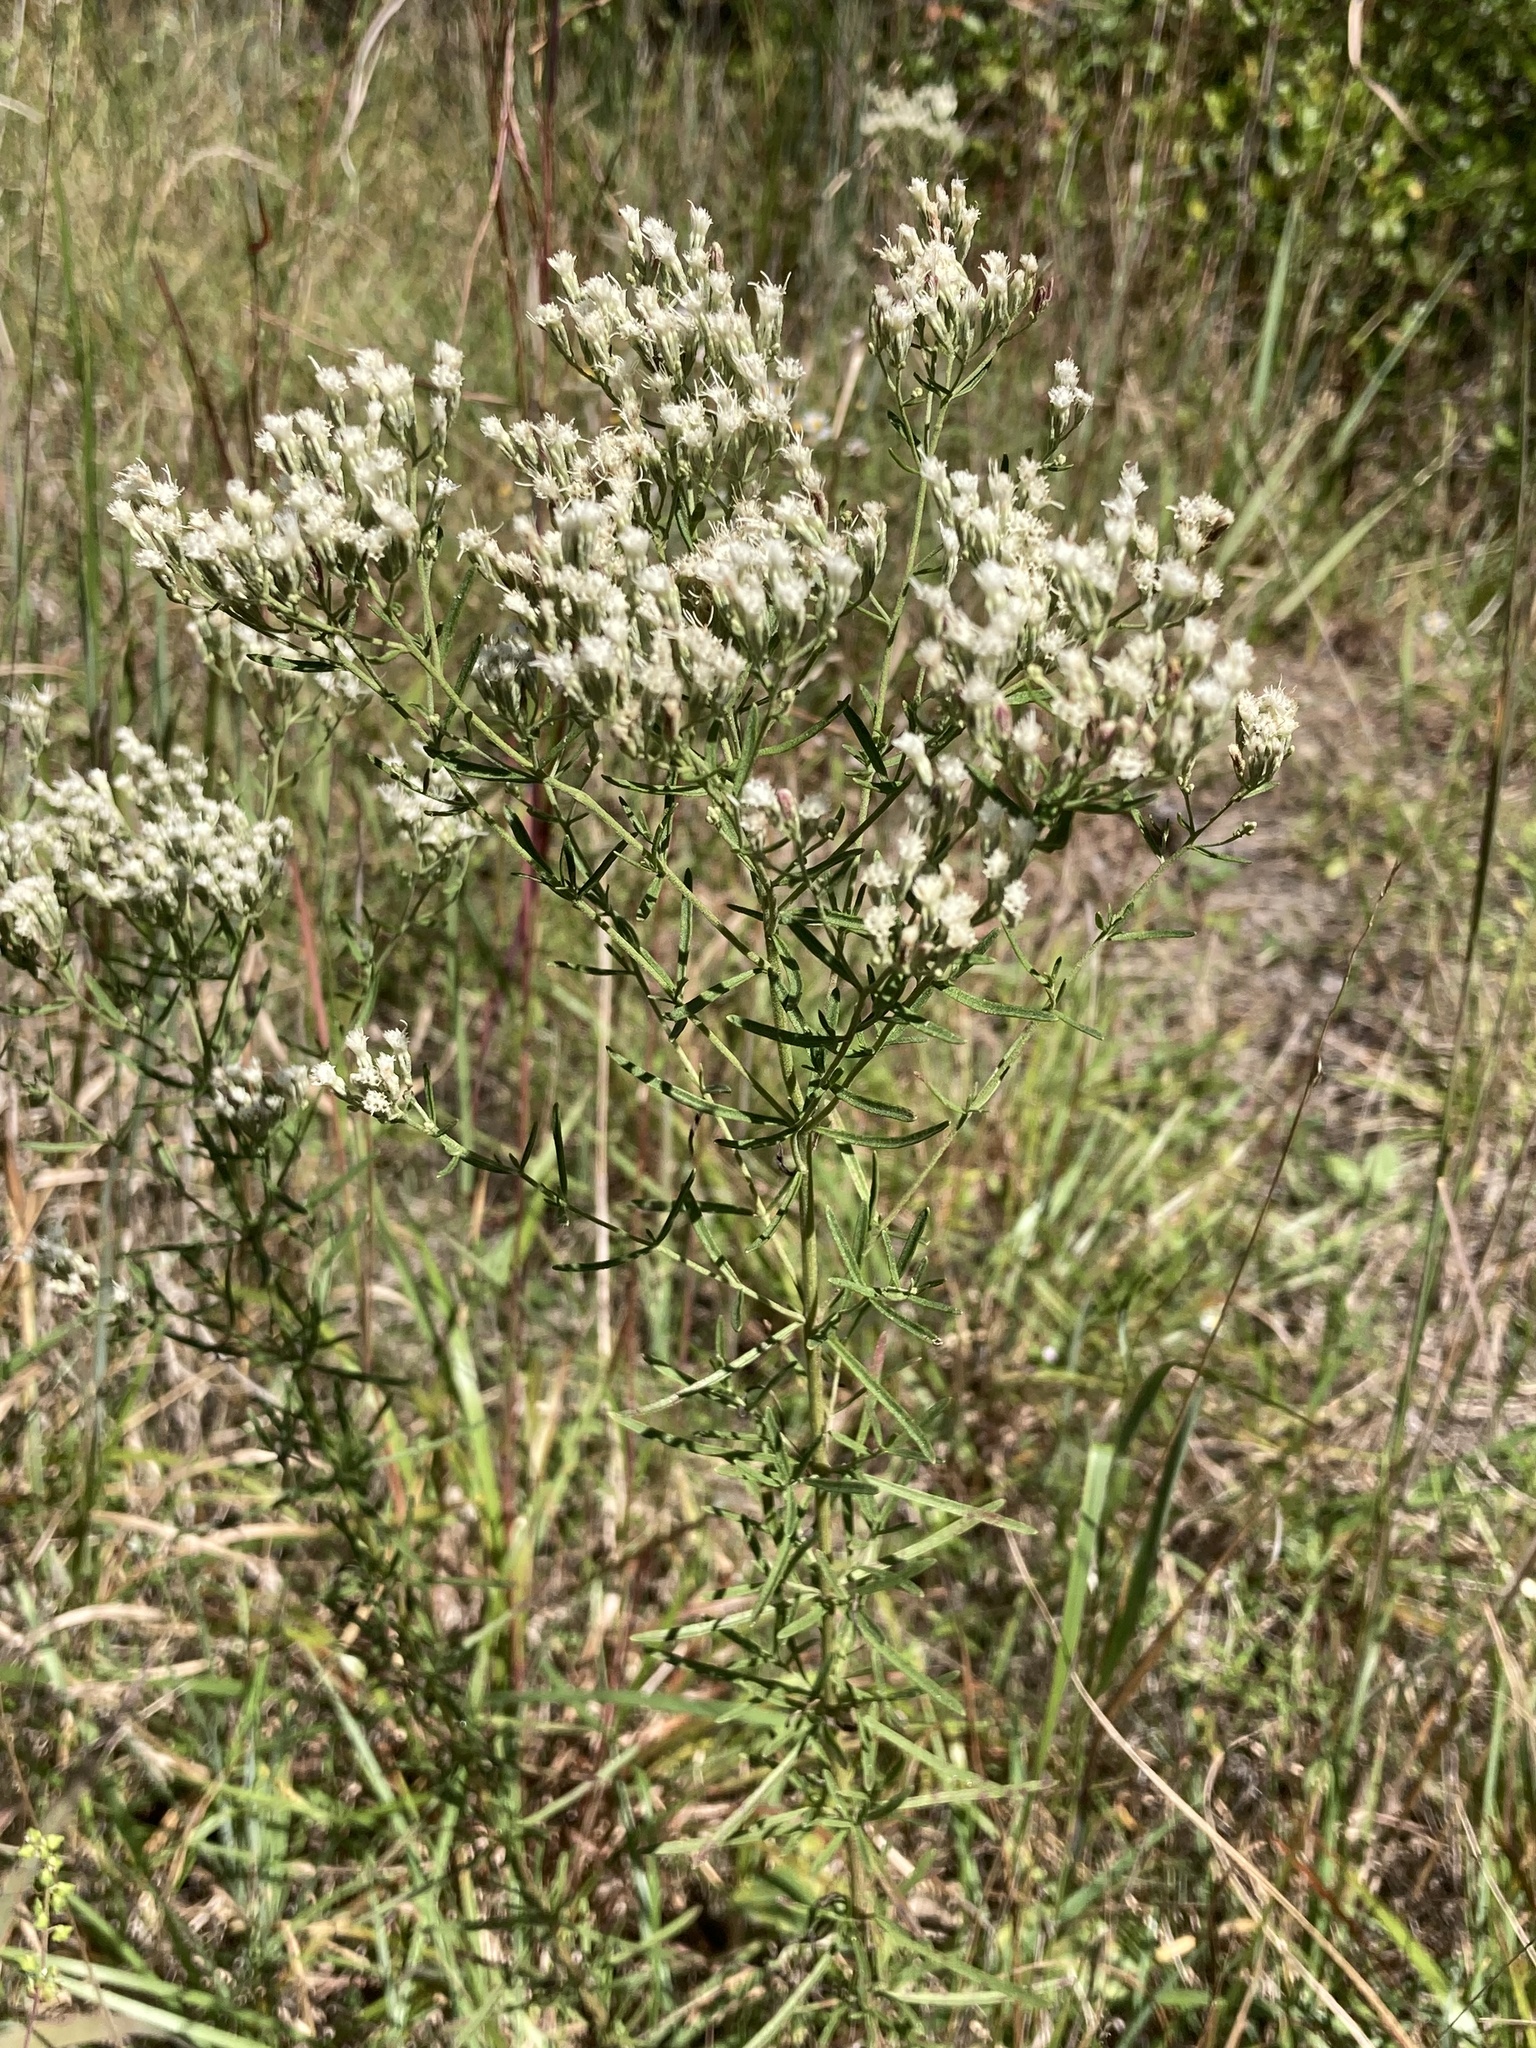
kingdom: Plantae
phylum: Tracheophyta
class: Magnoliopsida
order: Asterales
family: Asteraceae
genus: Eupatorium
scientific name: Eupatorium hyssopifolium
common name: Hyssop-leaf thoroughwort
